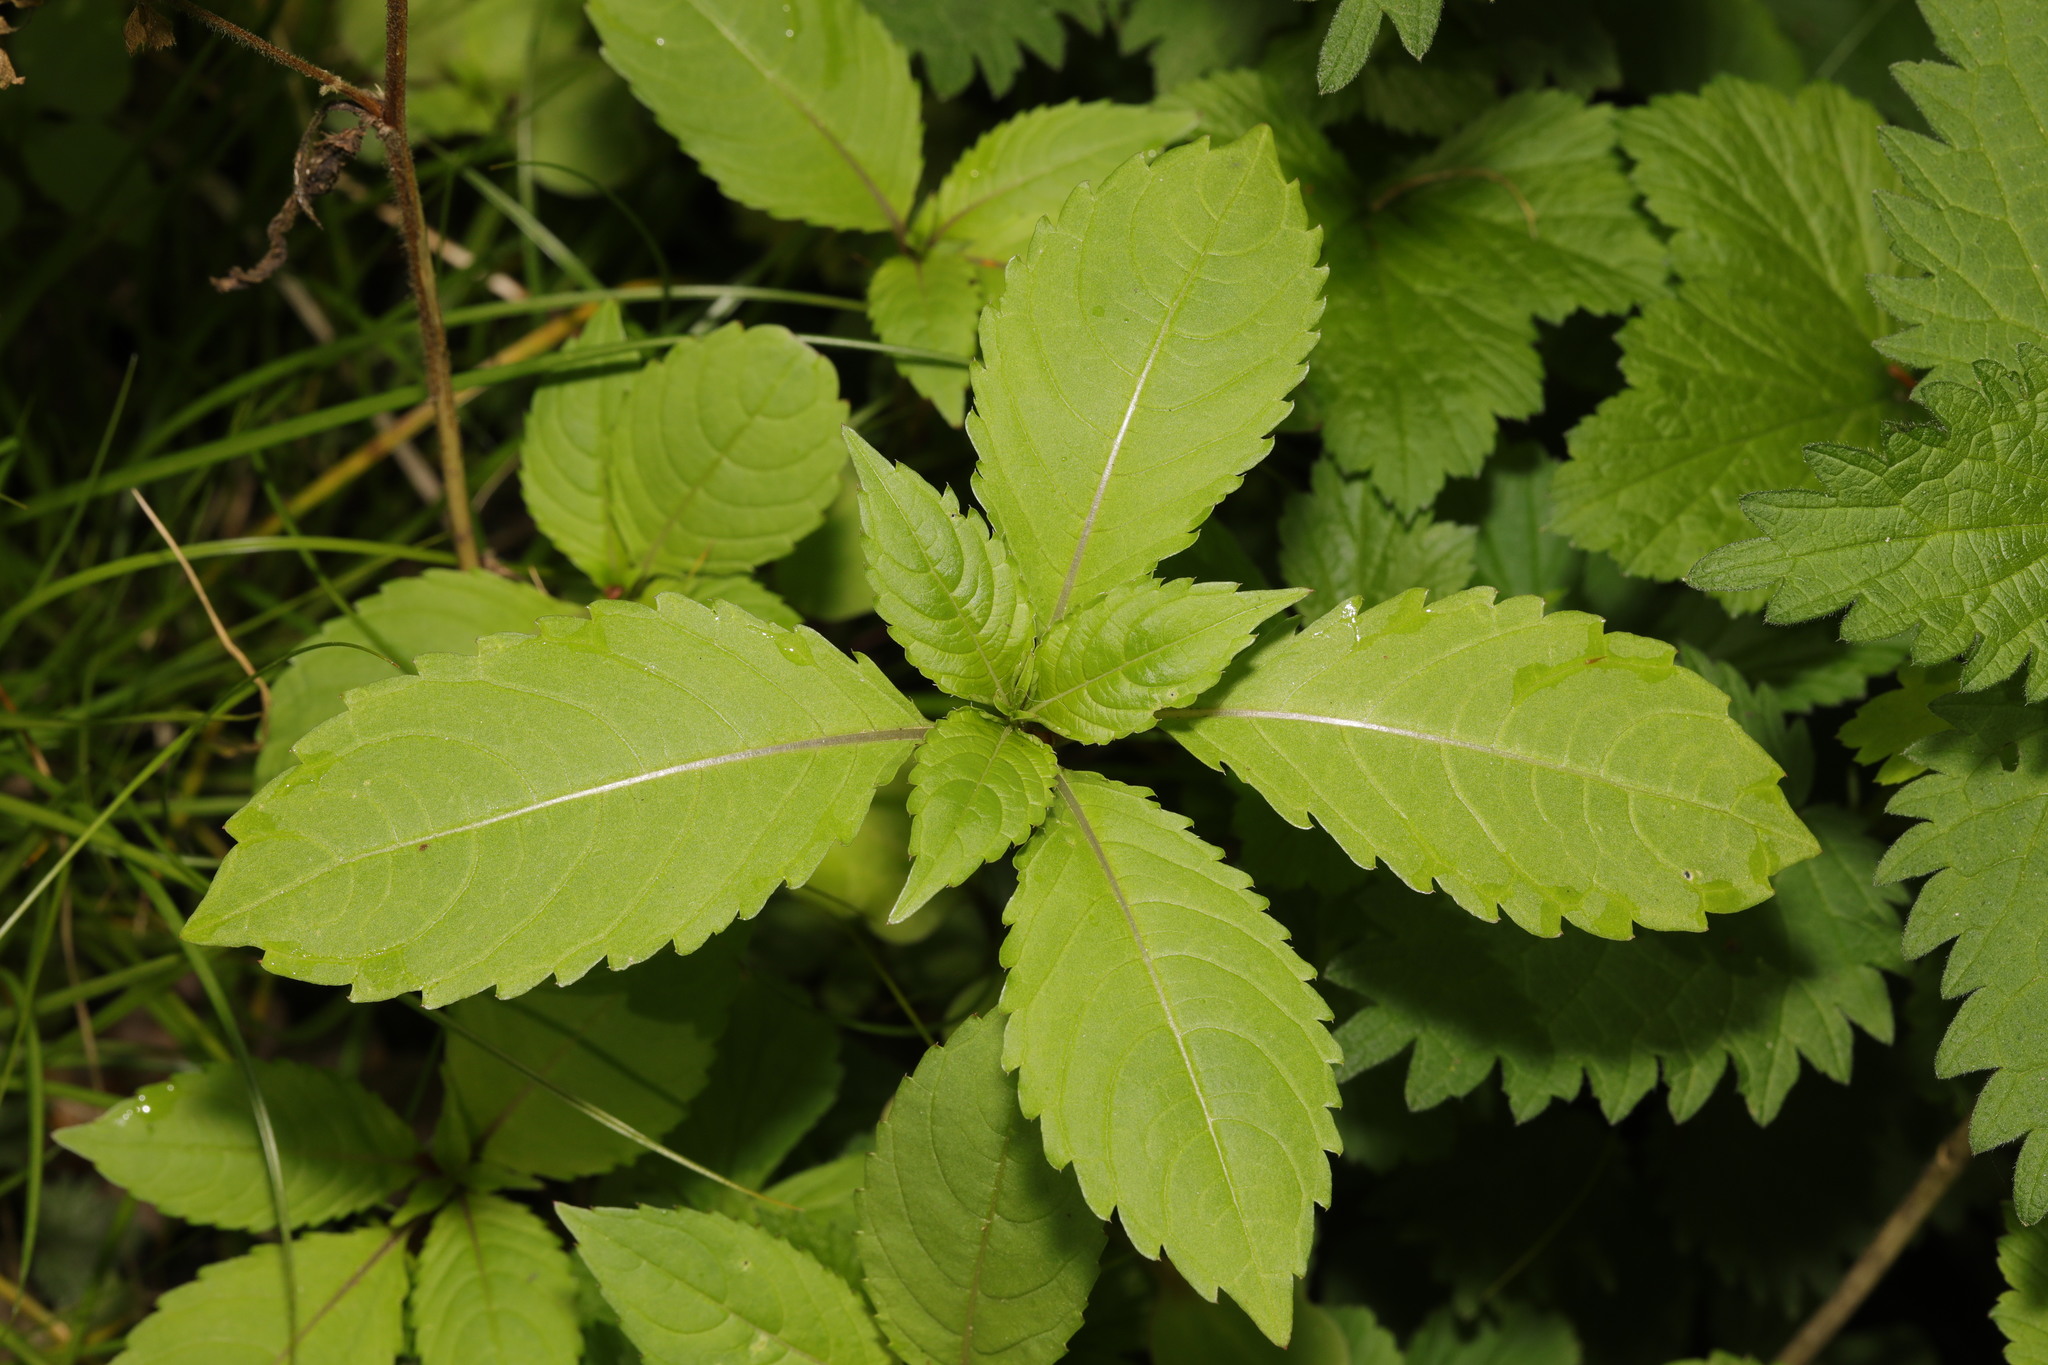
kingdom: Plantae
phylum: Tracheophyta
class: Magnoliopsida
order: Ericales
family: Balsaminaceae
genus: Impatiens
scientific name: Impatiens glandulifera
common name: Himalayan balsam
